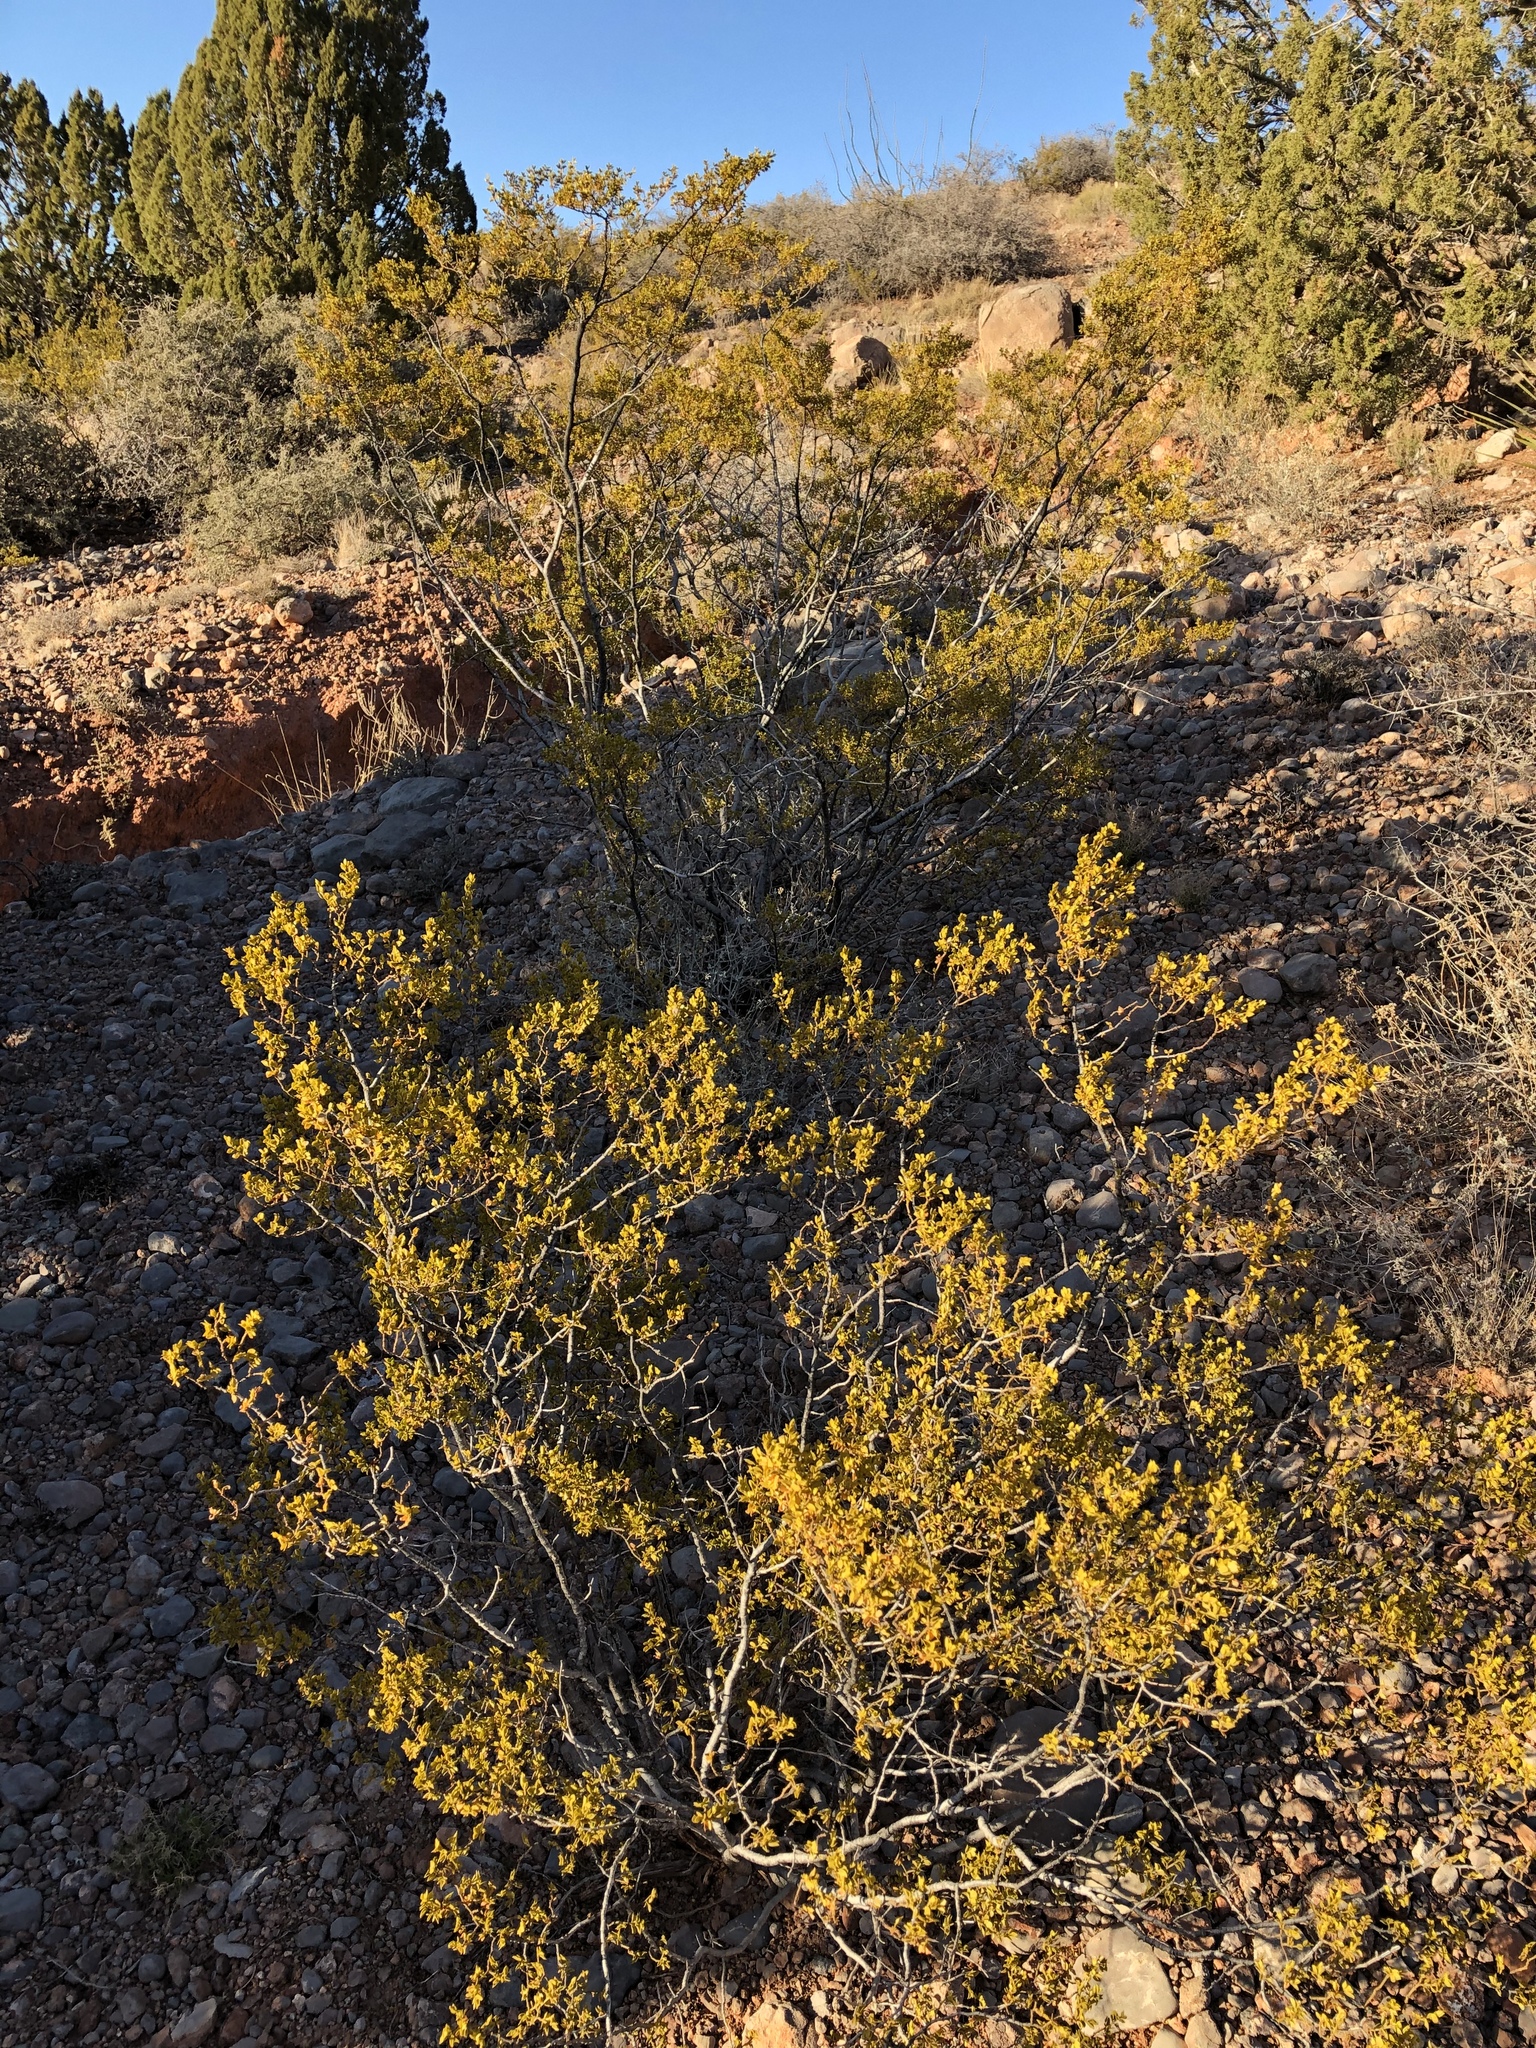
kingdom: Plantae
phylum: Tracheophyta
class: Magnoliopsida
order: Zygophyllales
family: Zygophyllaceae
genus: Larrea
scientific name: Larrea tridentata
